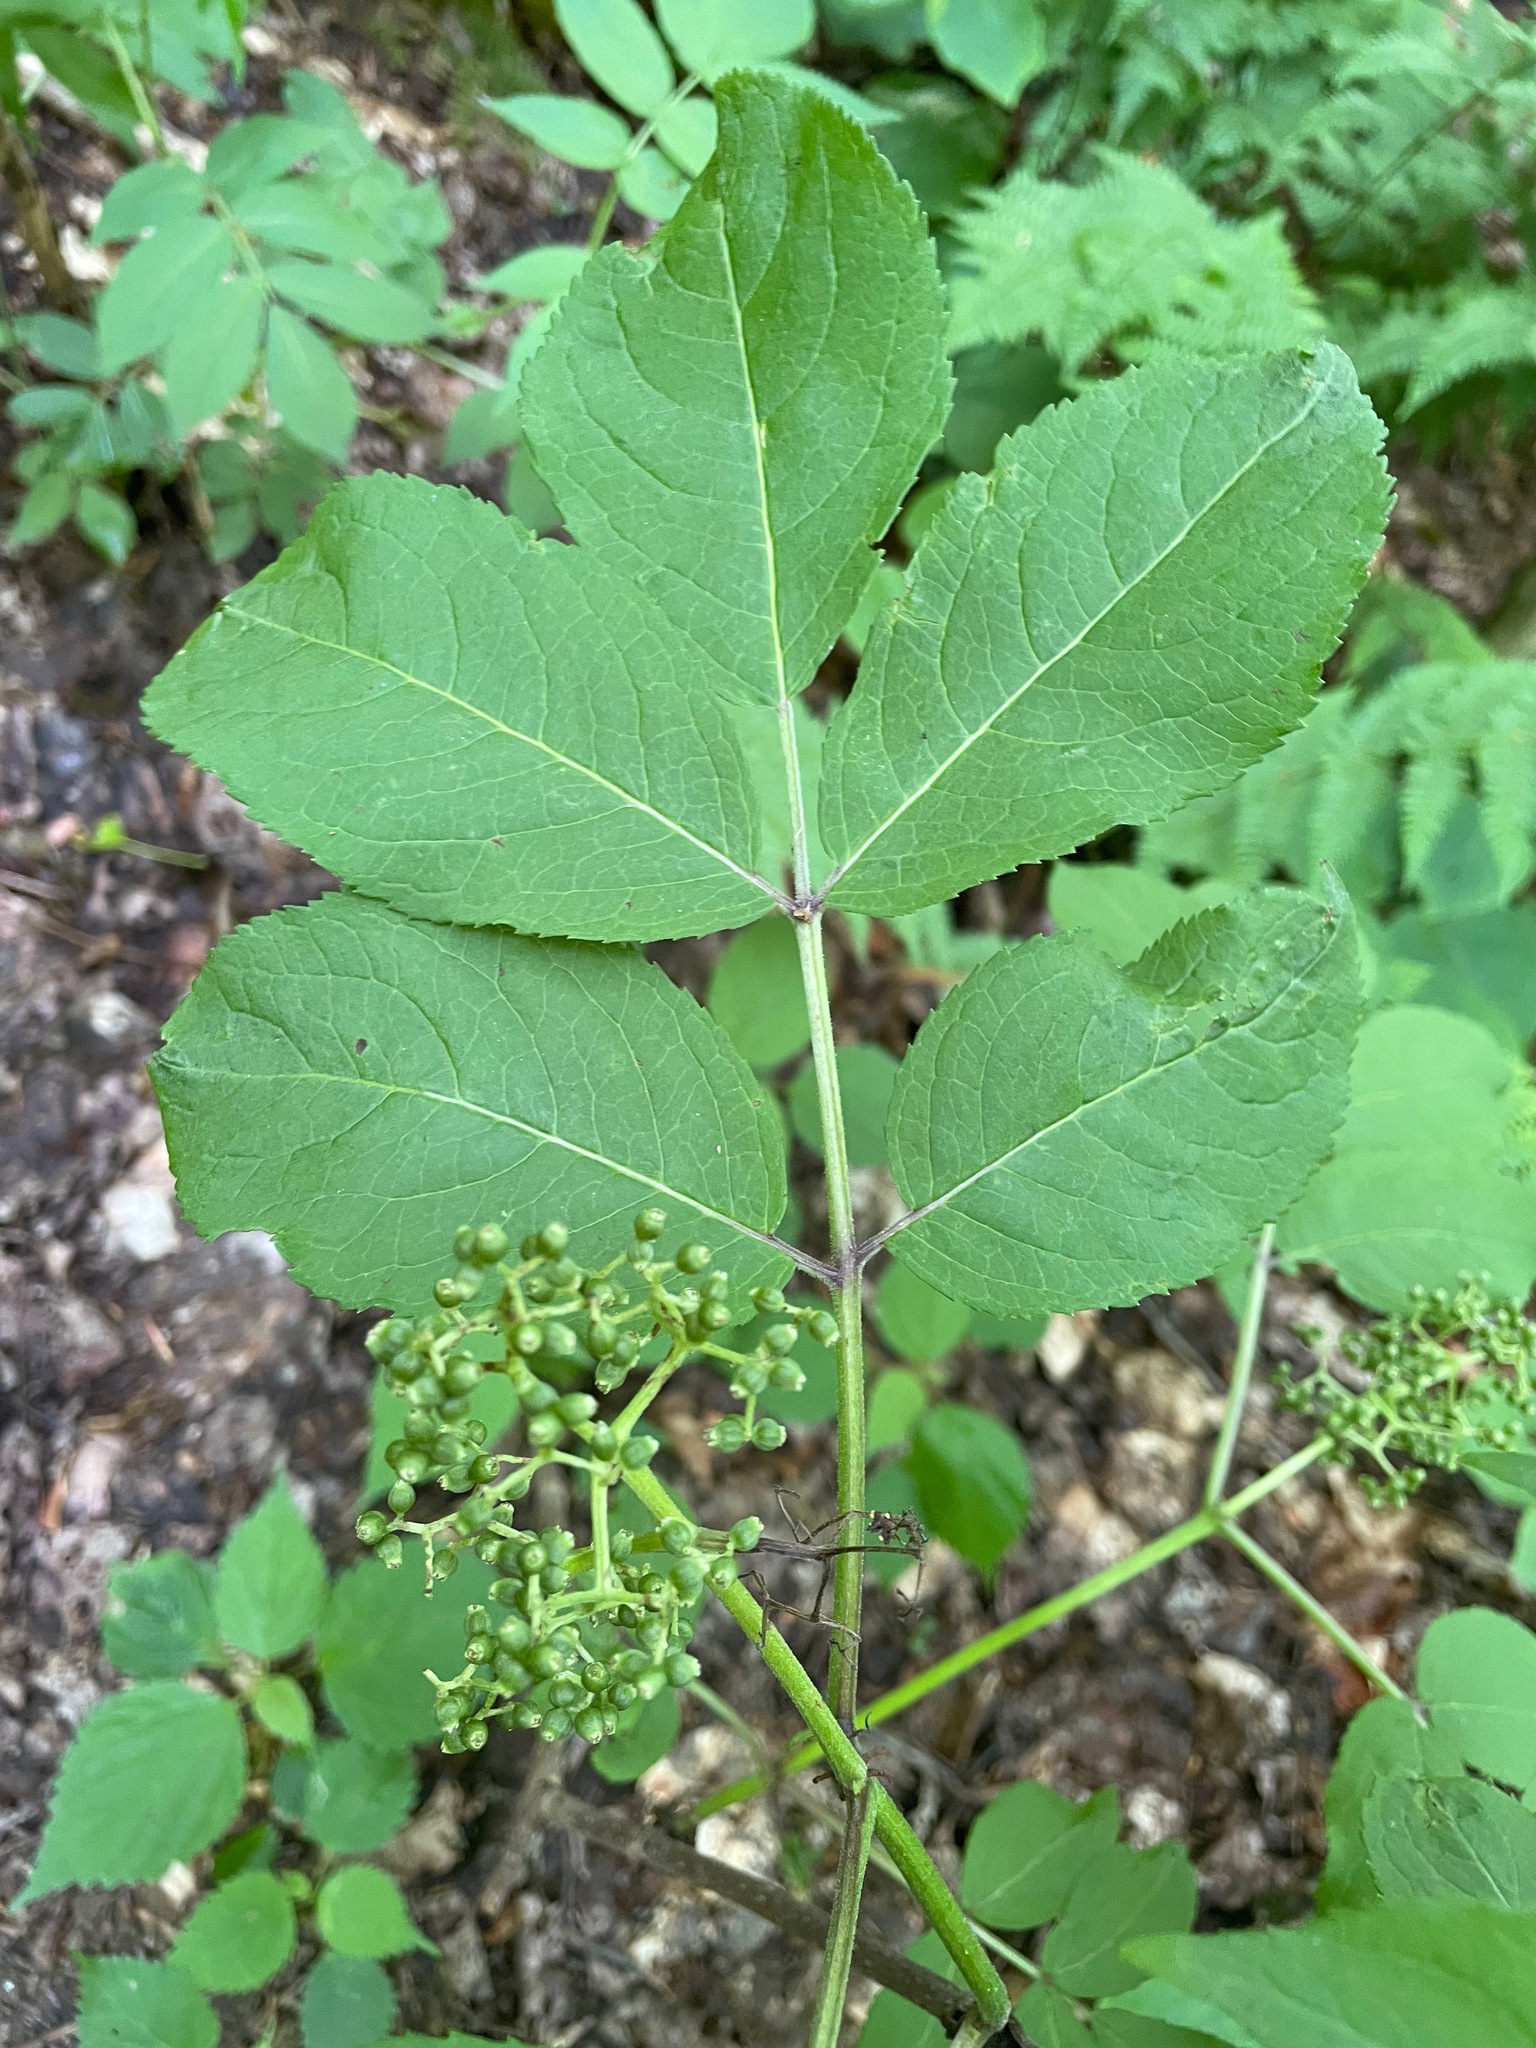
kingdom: Plantae
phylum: Tracheophyta
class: Magnoliopsida
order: Dipsacales
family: Viburnaceae
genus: Sambucus
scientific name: Sambucus racemosa
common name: Red-berried elder
